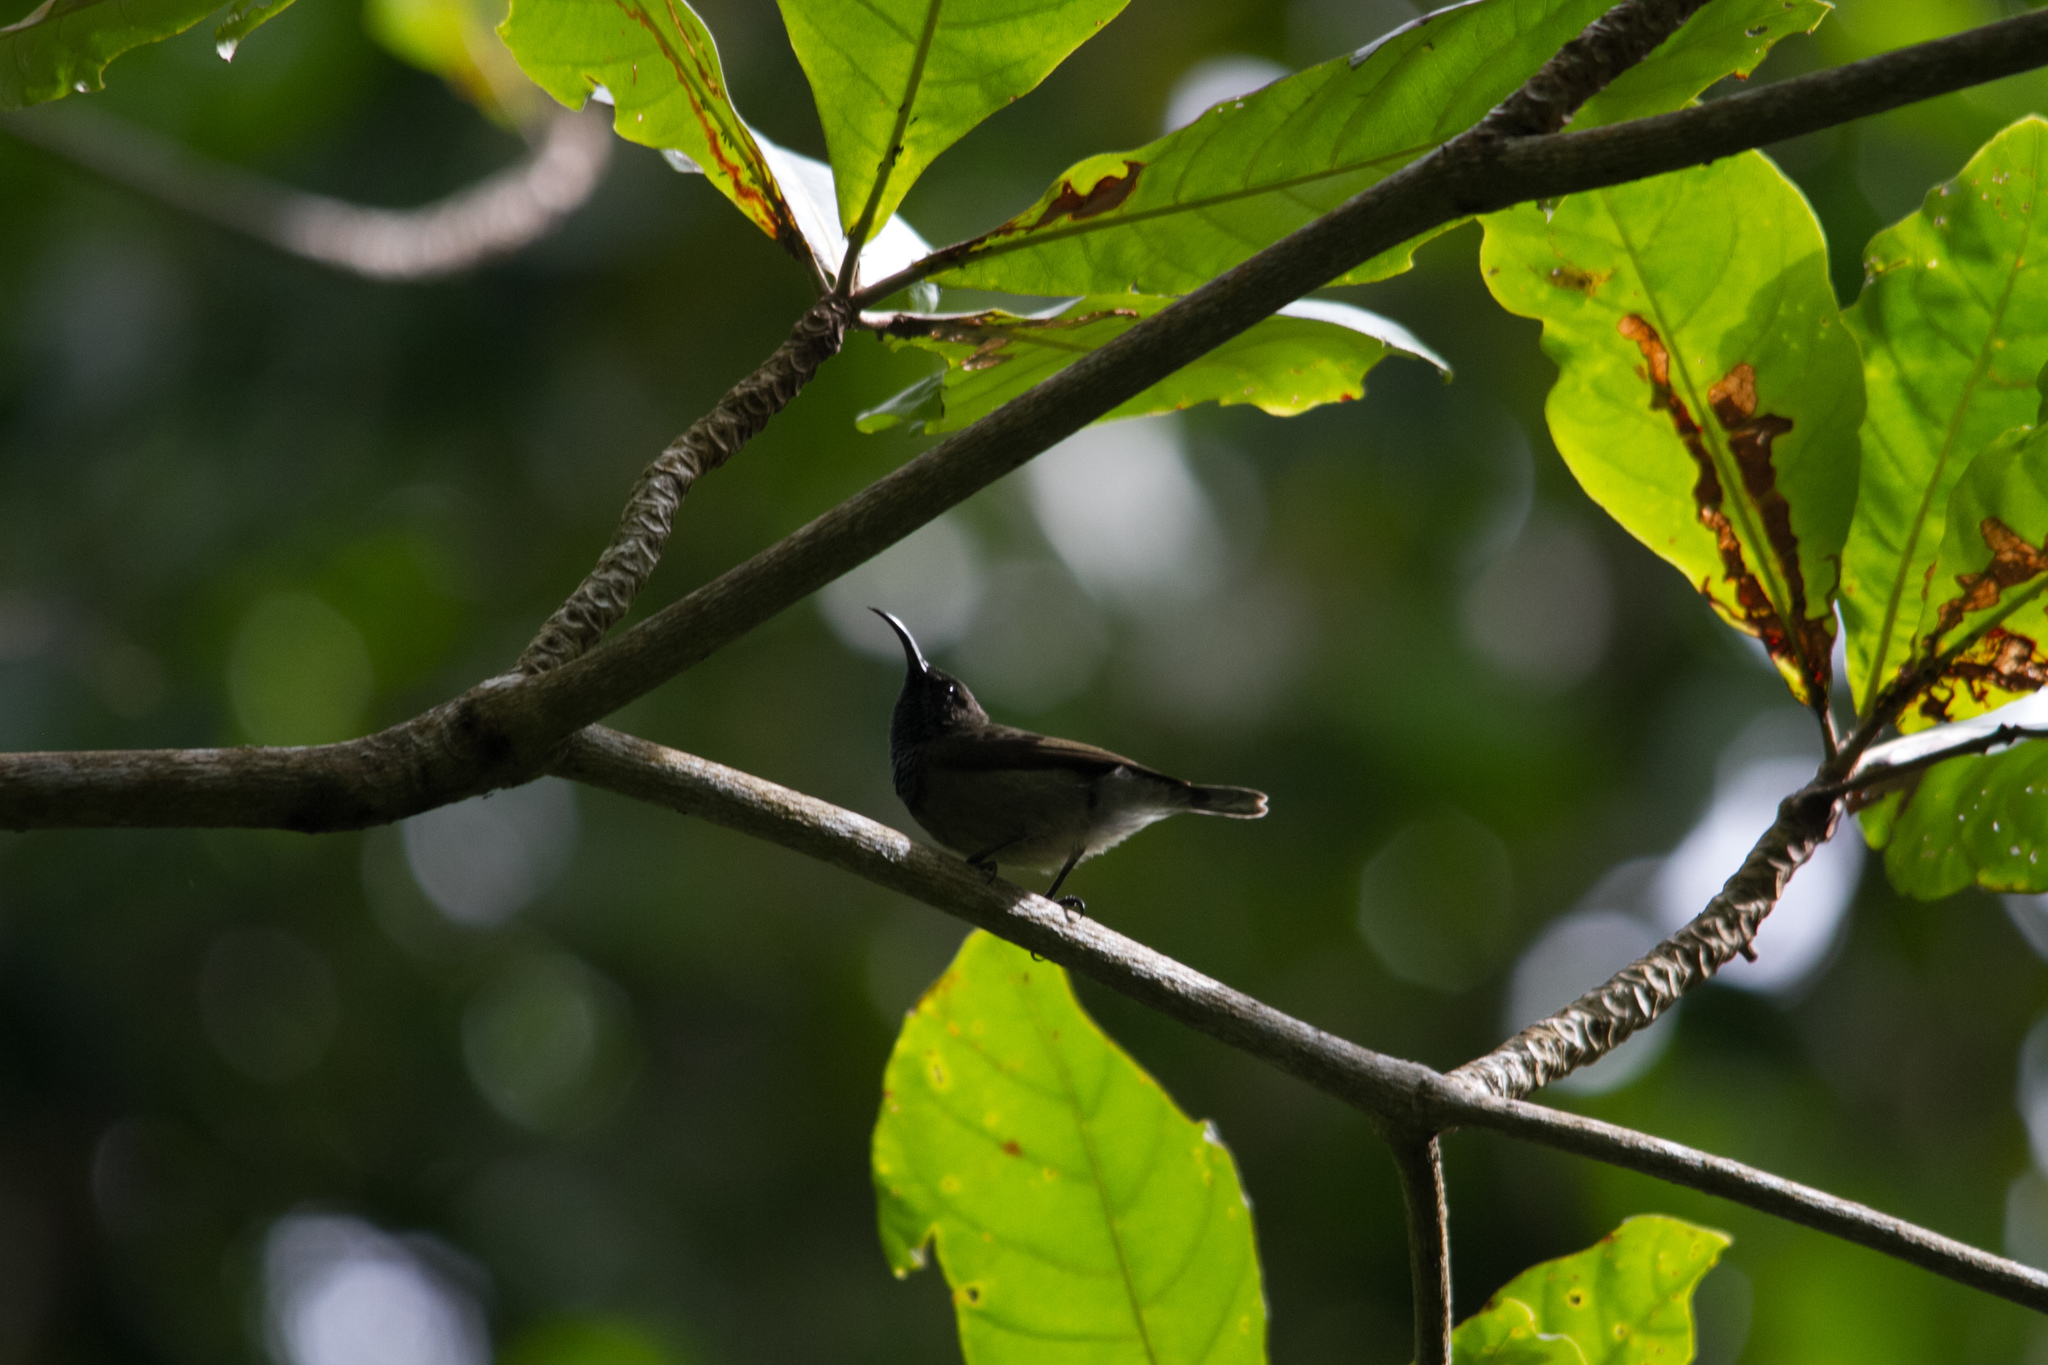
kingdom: Animalia
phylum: Chordata
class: Aves
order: Passeriformes
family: Nectariniidae
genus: Cinnyris
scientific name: Cinnyris dussumieri
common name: Seychelles sunbird
